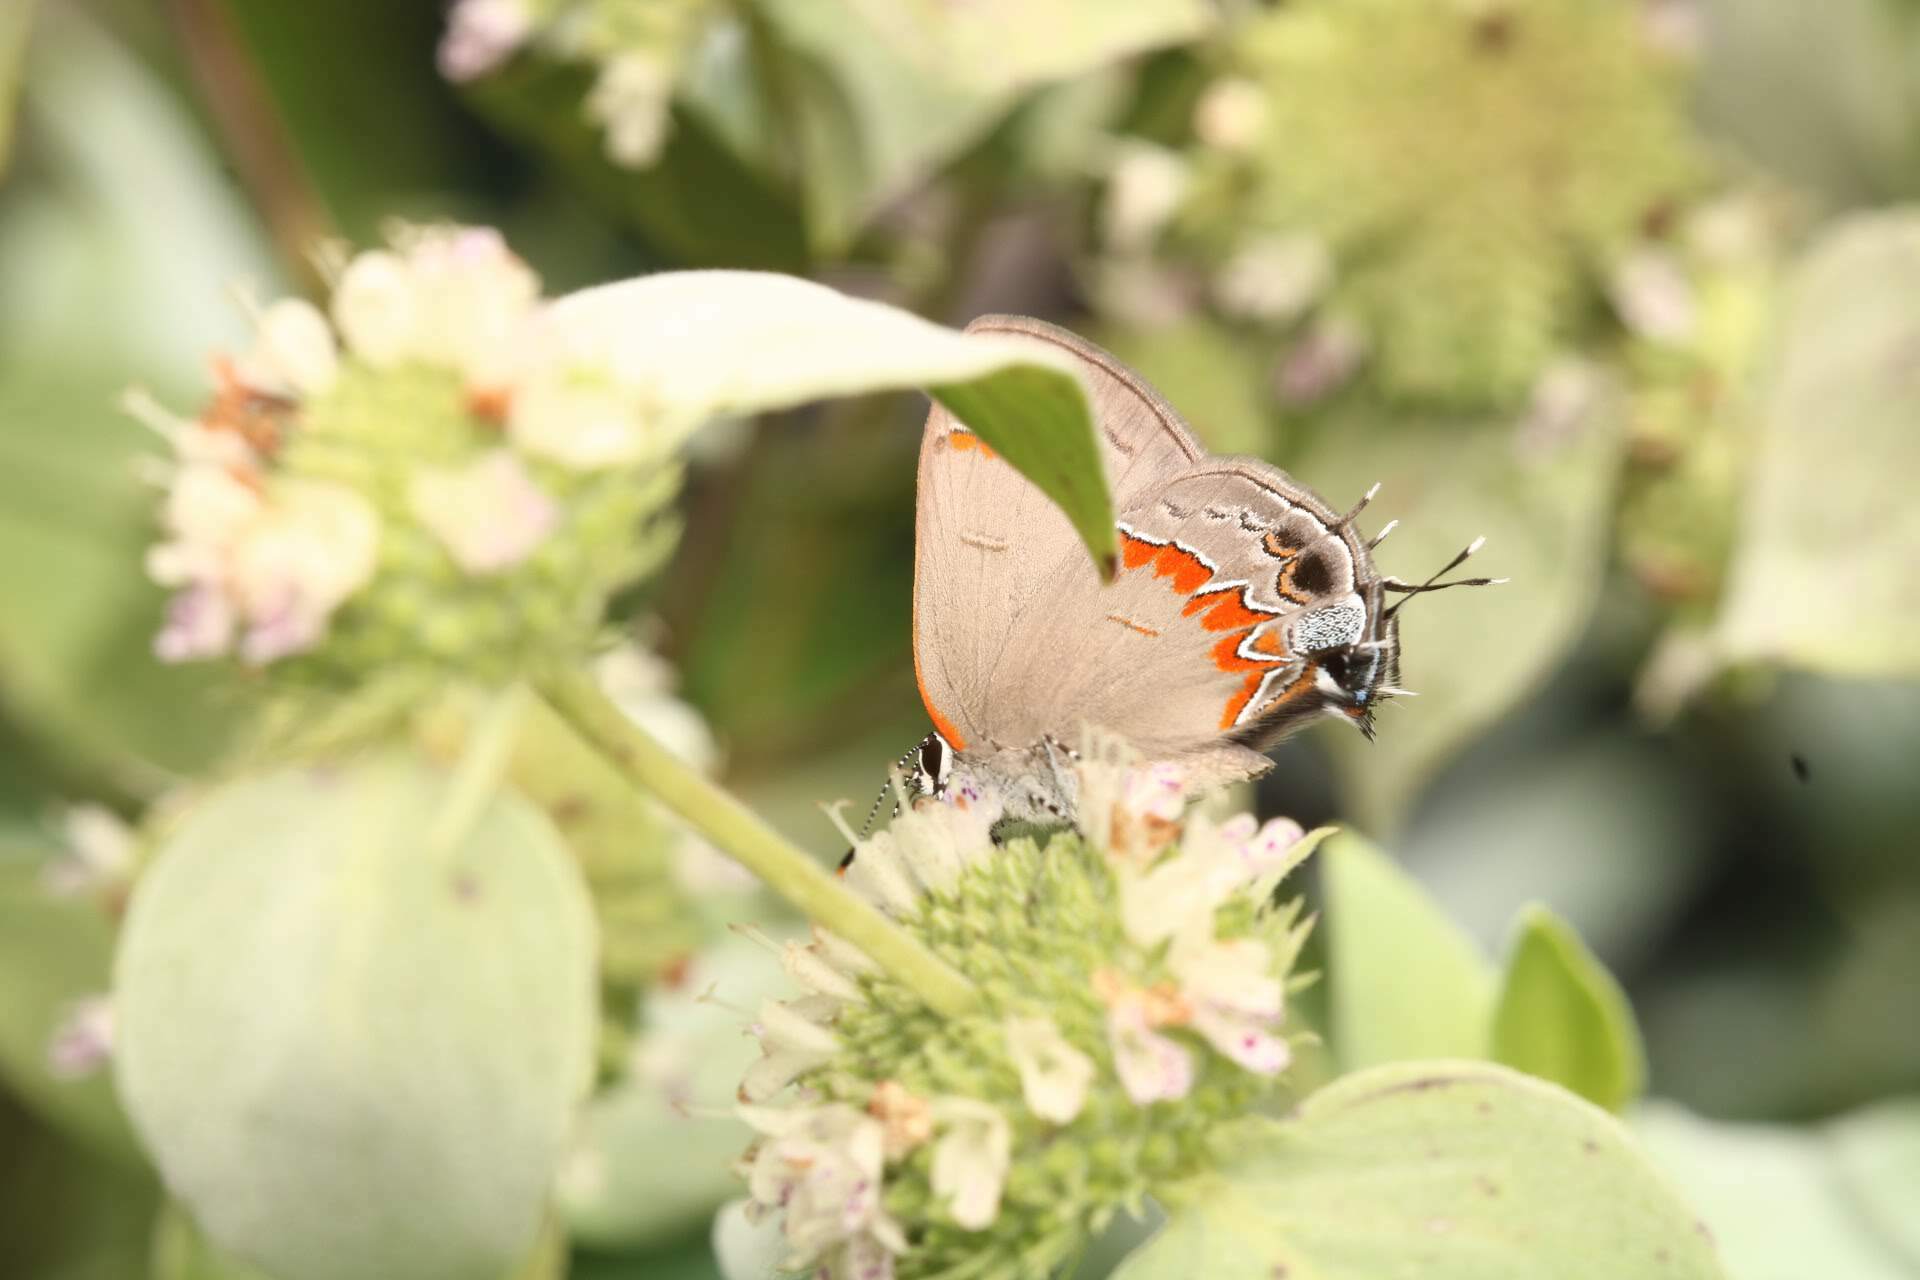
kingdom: Animalia
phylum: Arthropoda
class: Insecta
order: Lepidoptera
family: Lycaenidae
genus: Calycopis
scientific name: Calycopis cecrops
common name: Red-banded hairstreak
